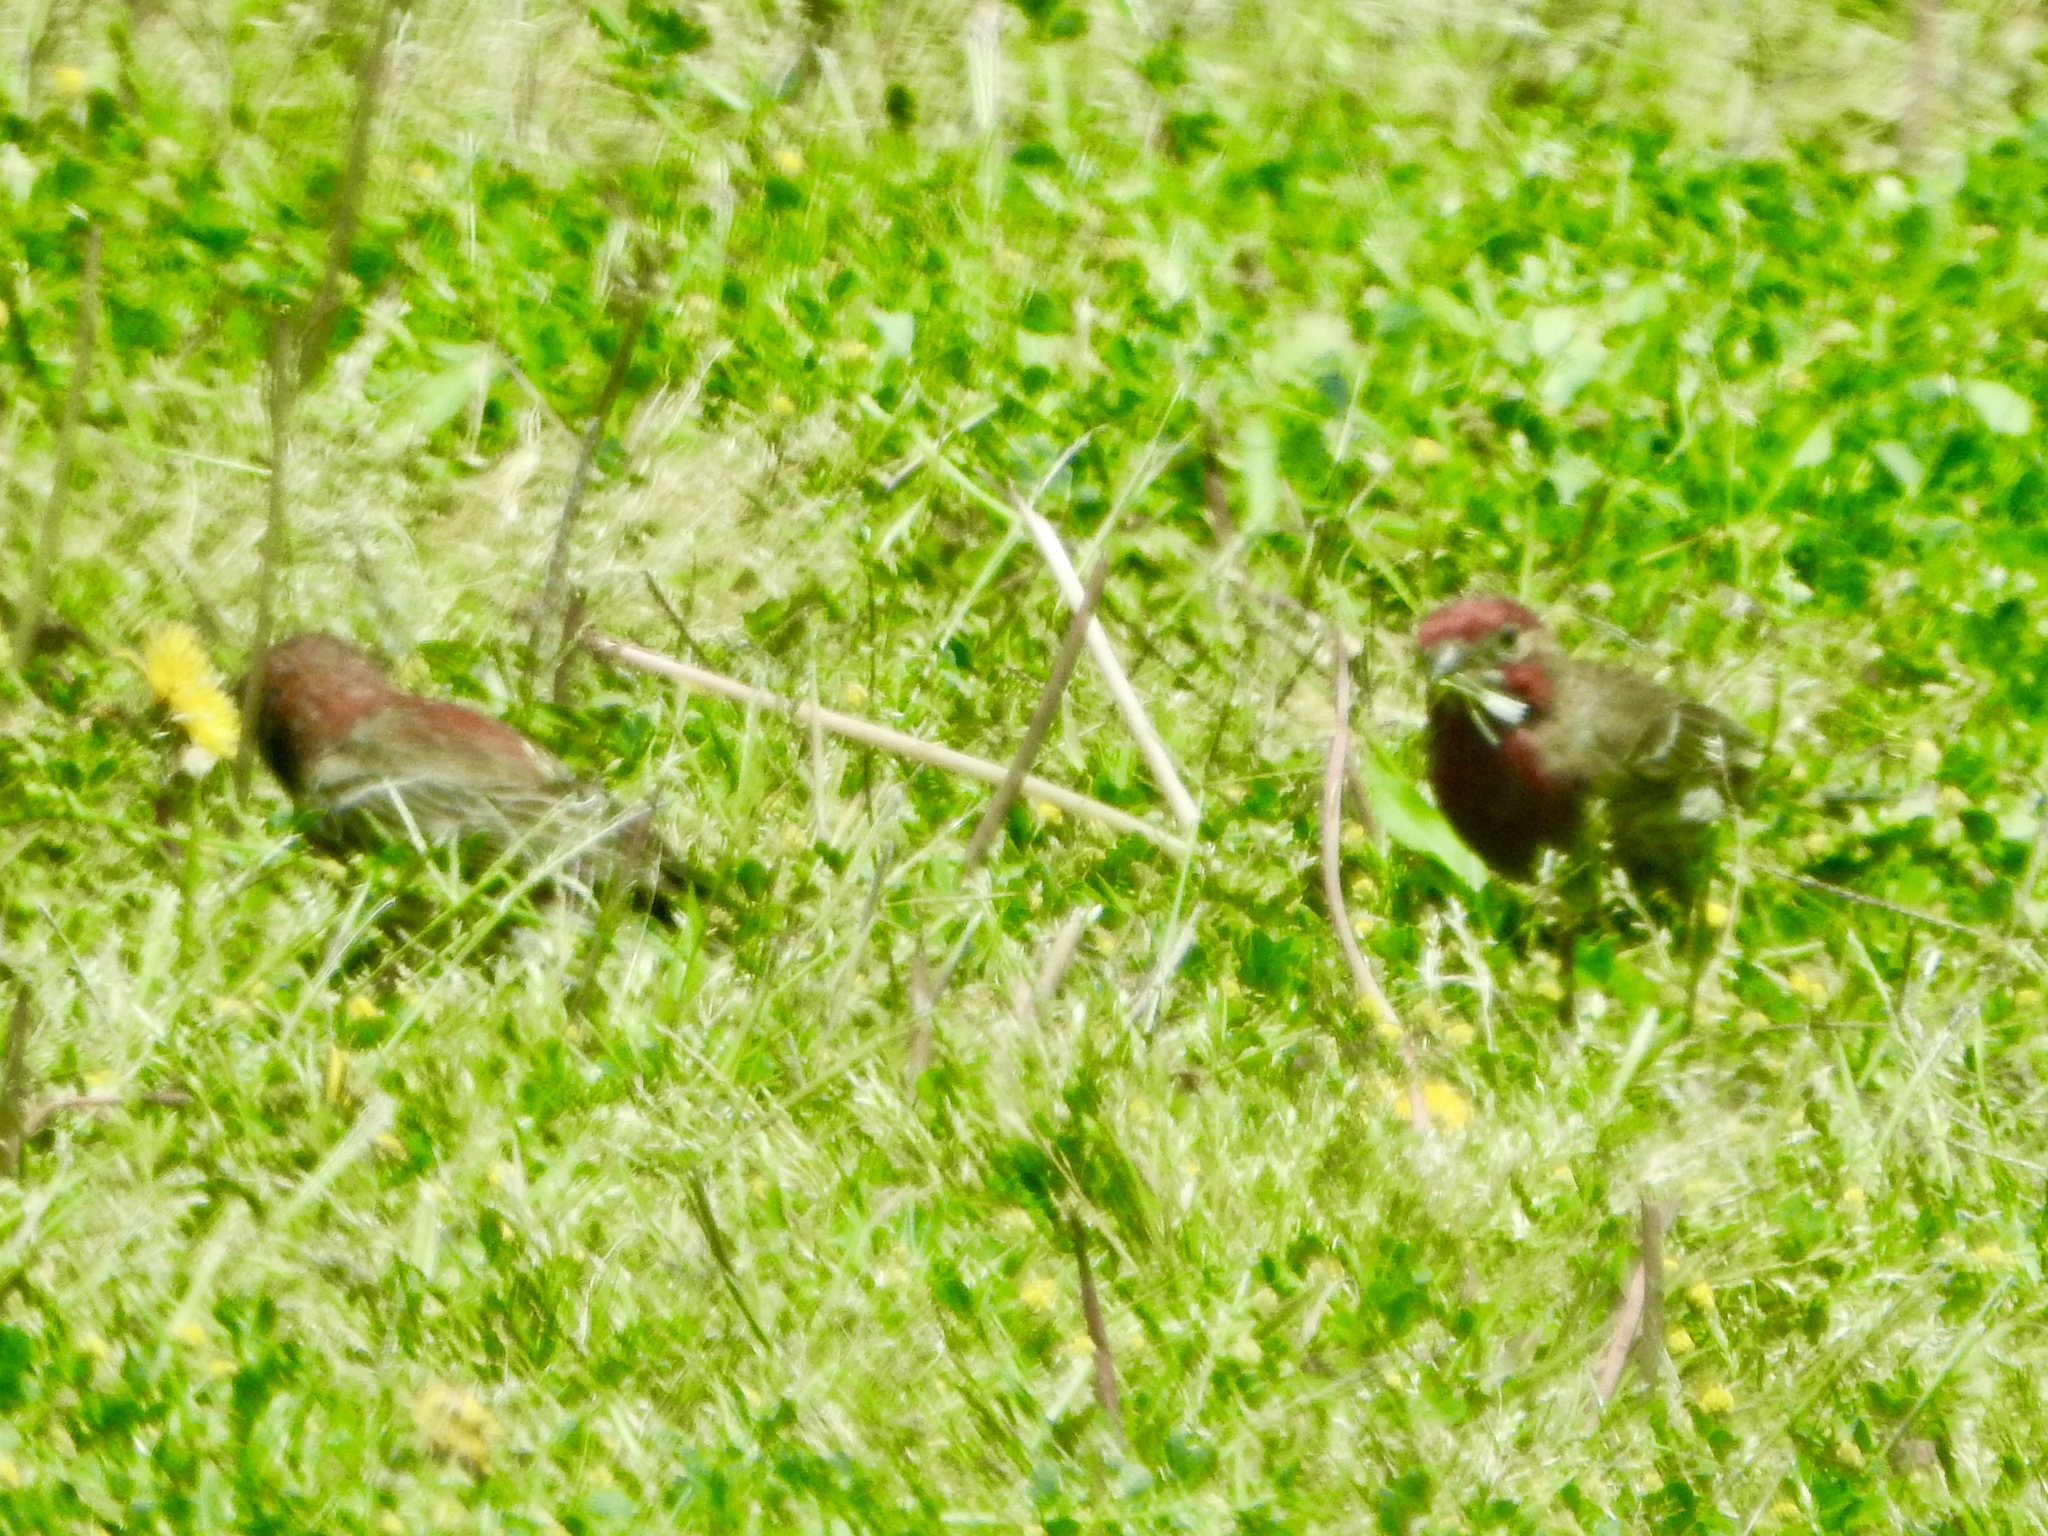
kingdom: Animalia
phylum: Chordata
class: Aves
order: Passeriformes
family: Fringillidae
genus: Haemorhous
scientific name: Haemorhous mexicanus
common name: House finch
